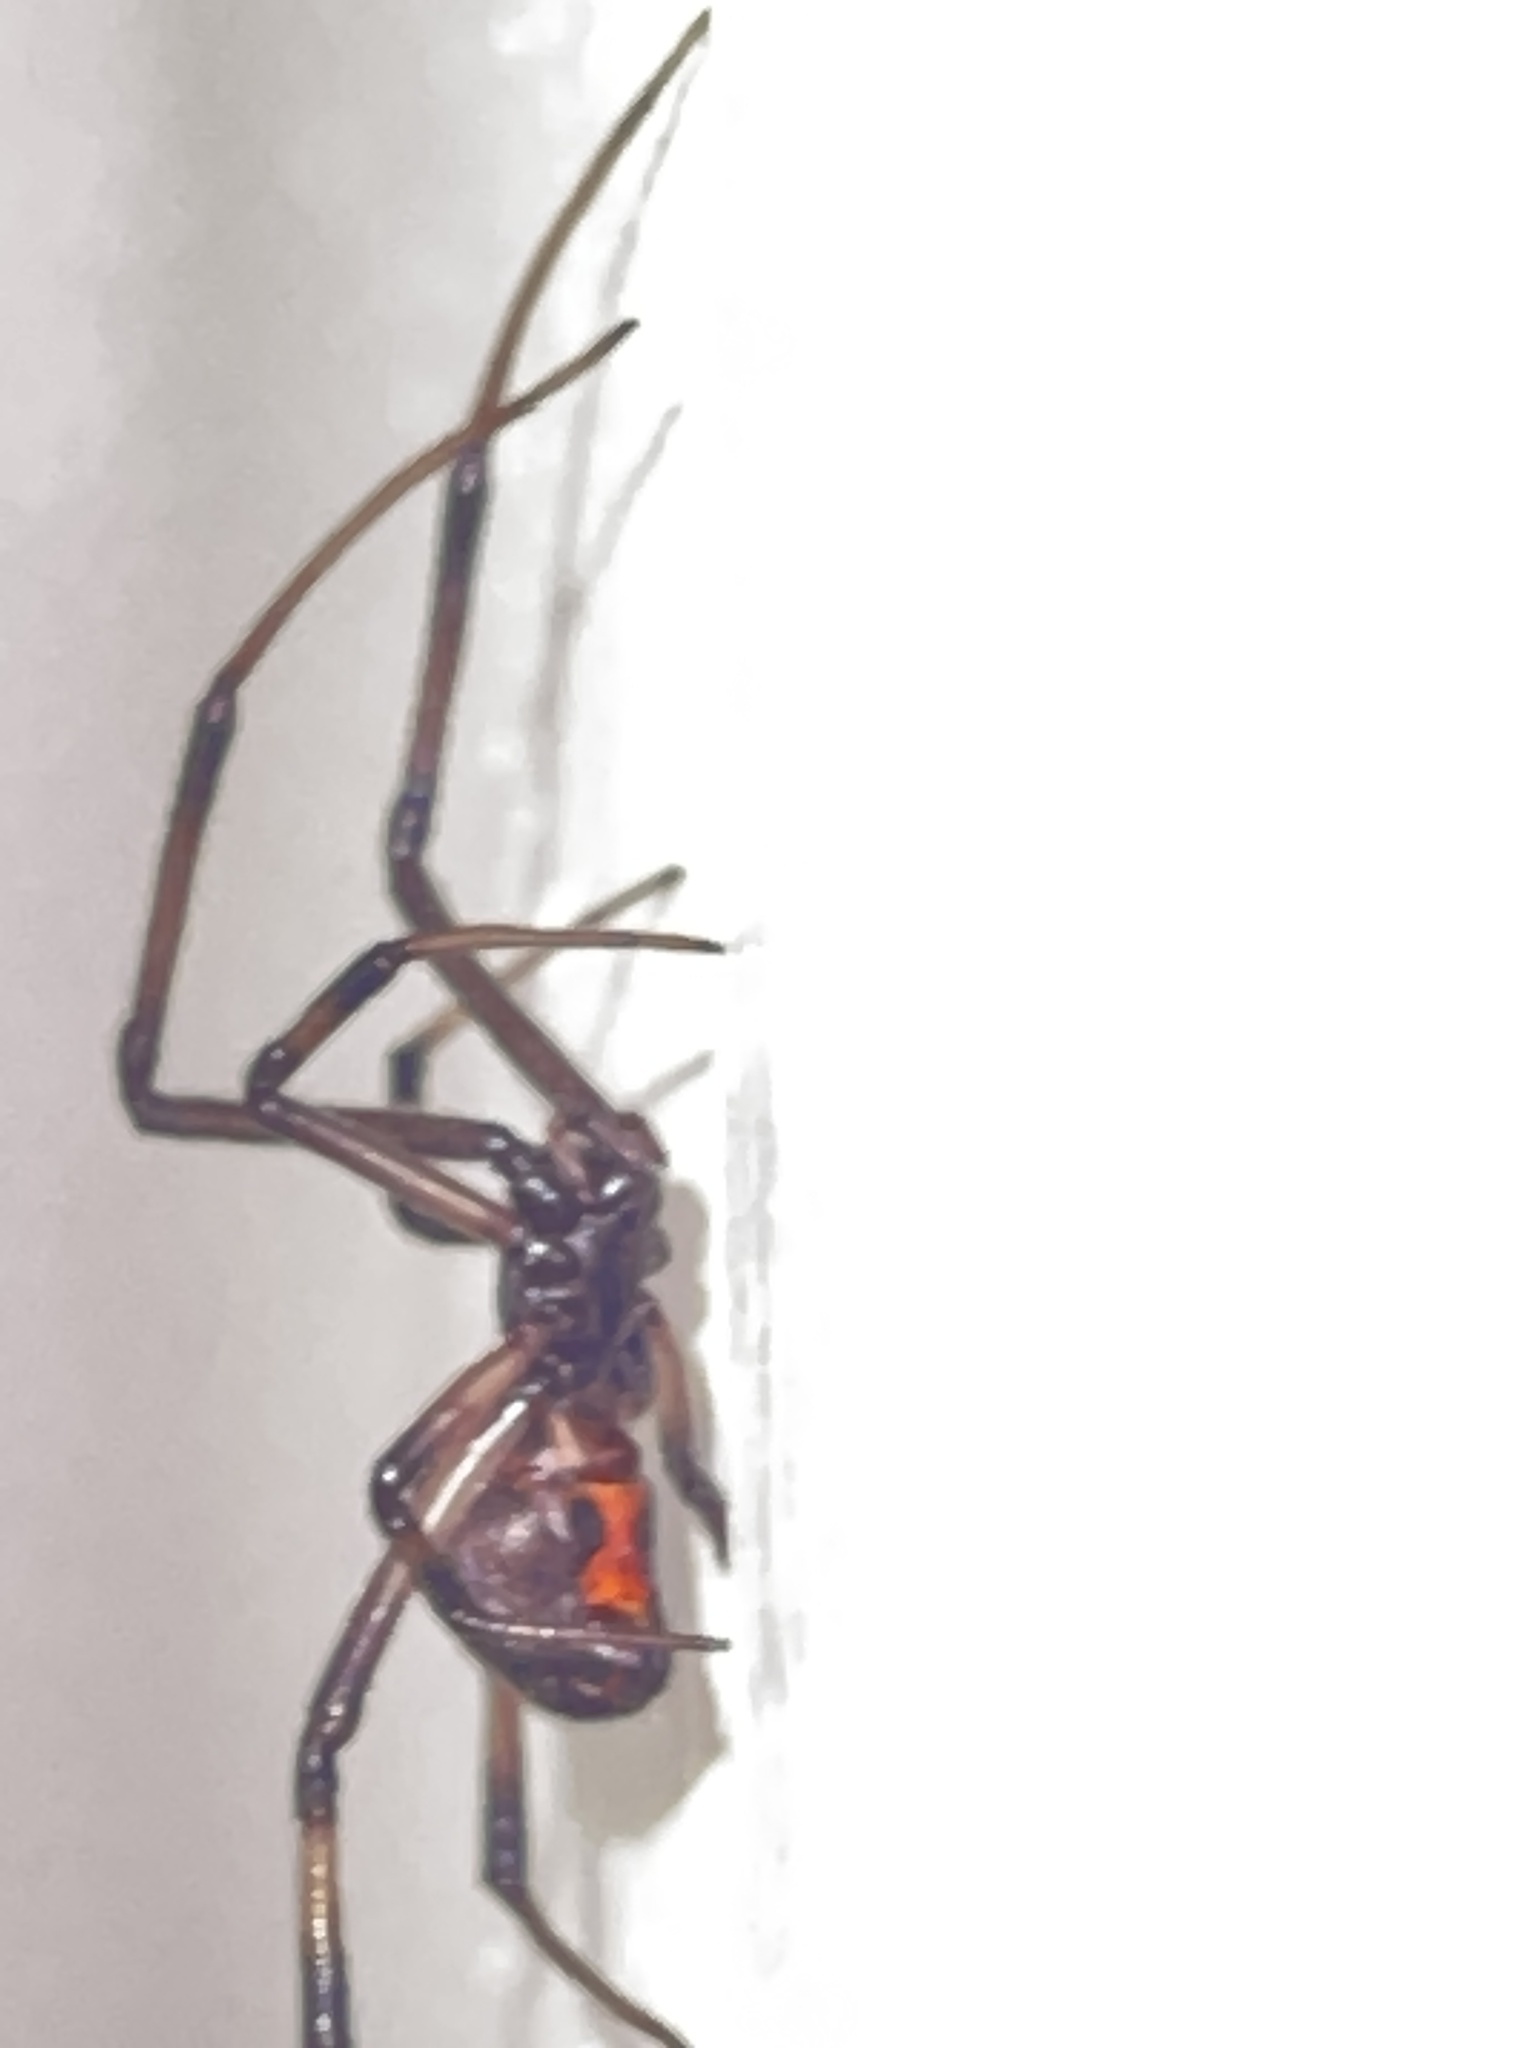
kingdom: Animalia
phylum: Arthropoda
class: Arachnida
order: Araneae
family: Theridiidae
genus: Latrodectus
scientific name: Latrodectus geometricus
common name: Brown widow spider
